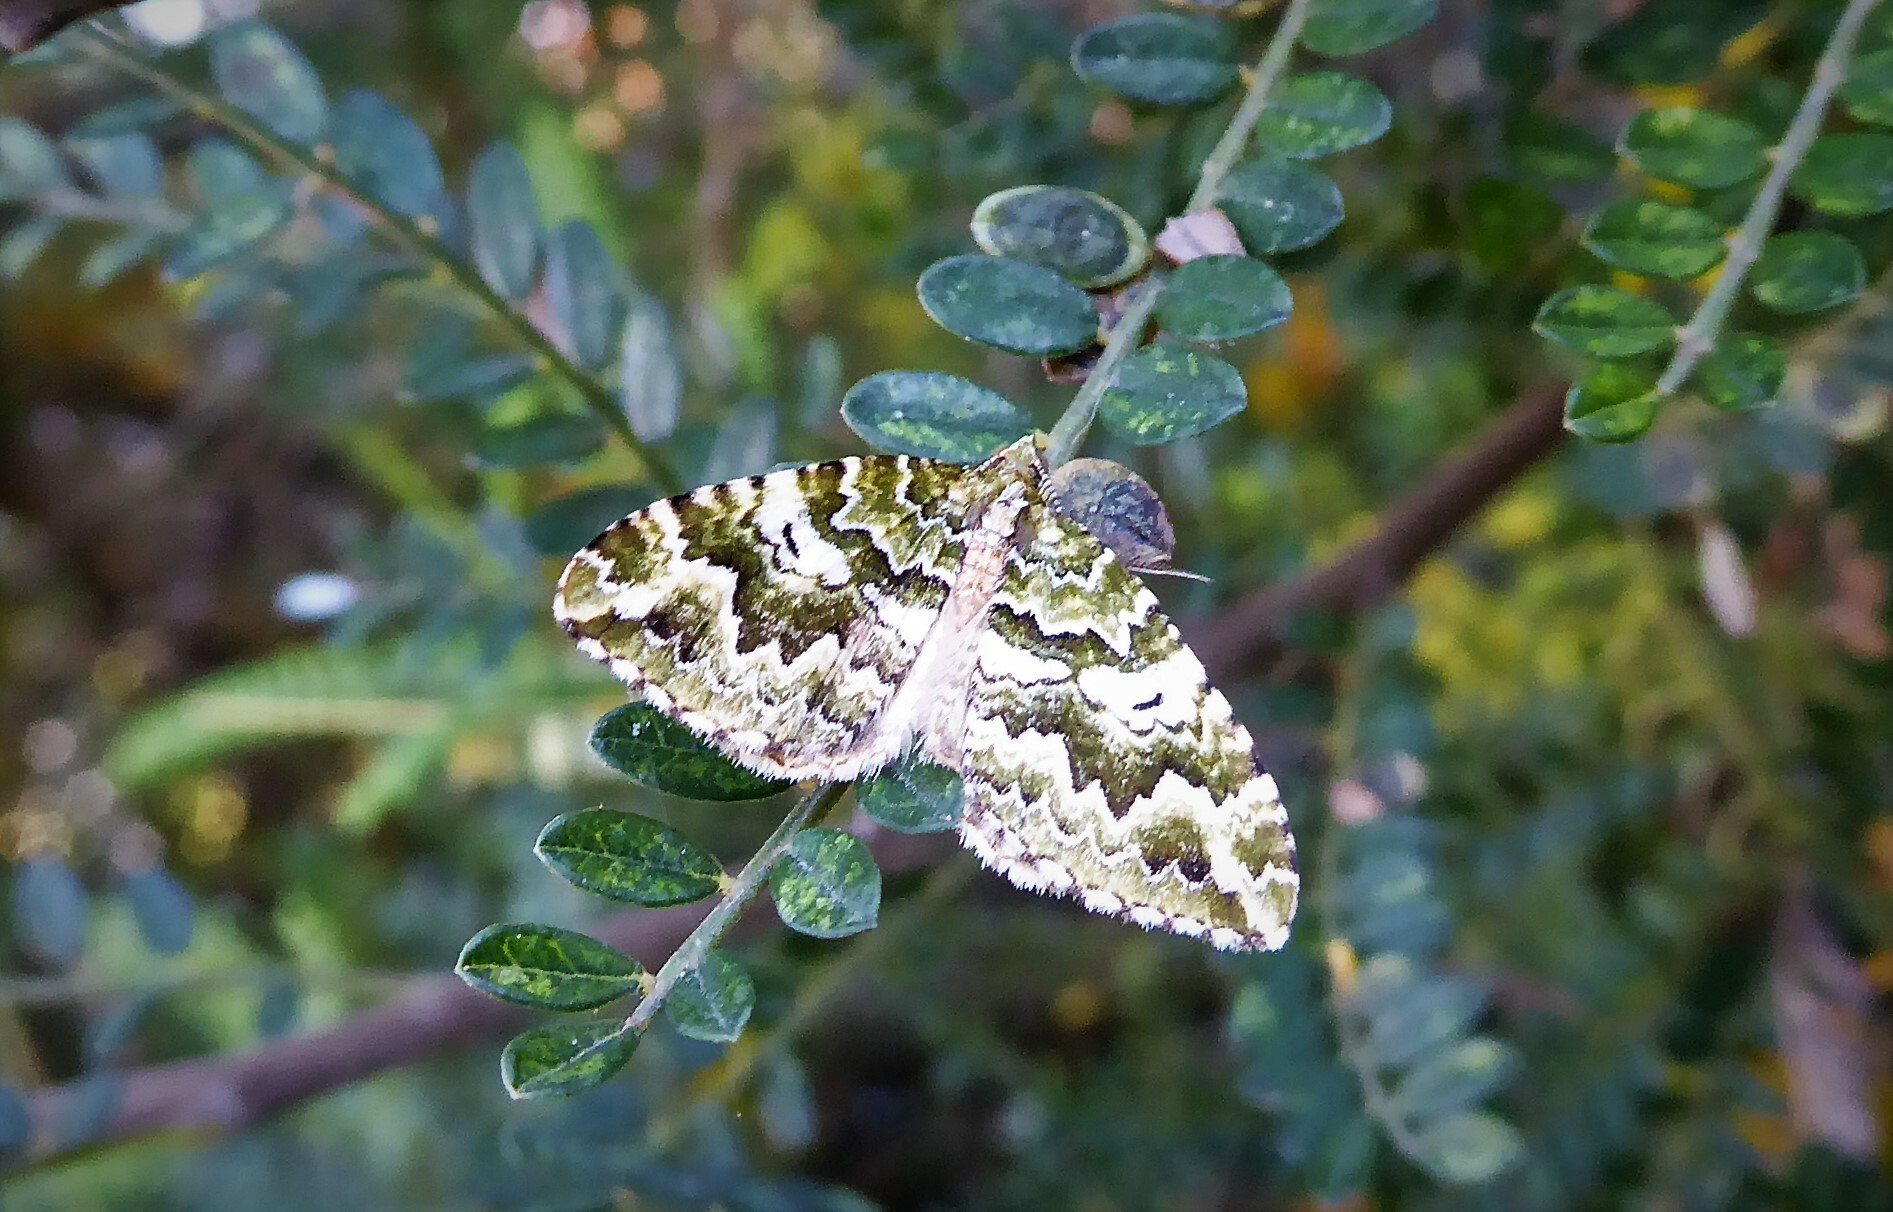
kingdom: Animalia
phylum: Arthropoda
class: Insecta
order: Lepidoptera
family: Geometridae
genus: Asaphodes
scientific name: Asaphodes beata
